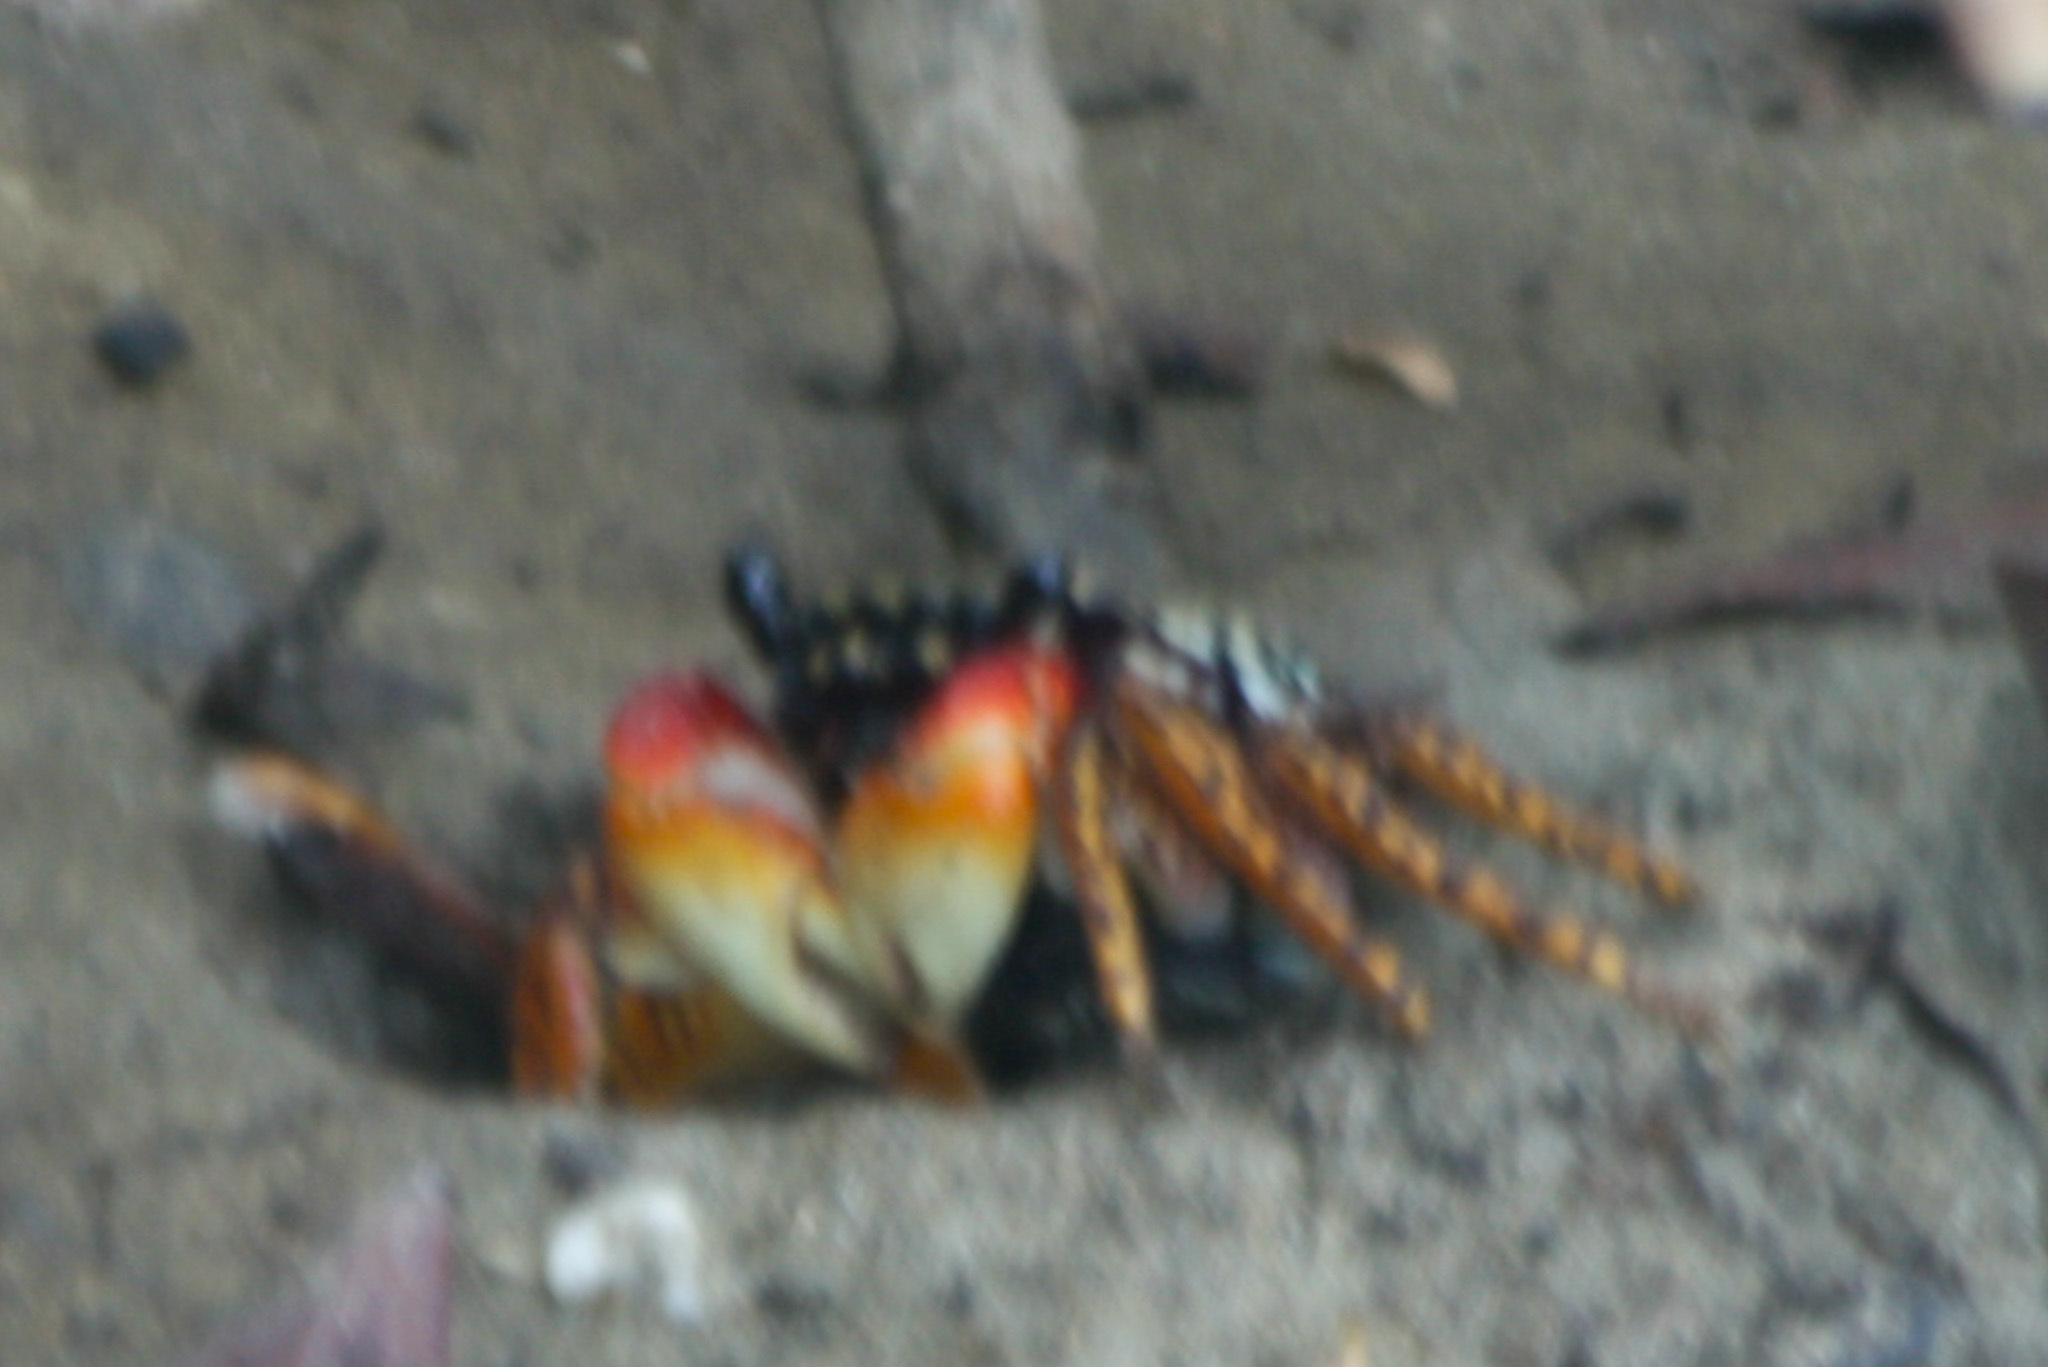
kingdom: Animalia
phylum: Arthropoda
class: Malacostraca
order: Decapoda
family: Grapsidae
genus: Goniopsis
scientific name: Goniopsis pulchra
